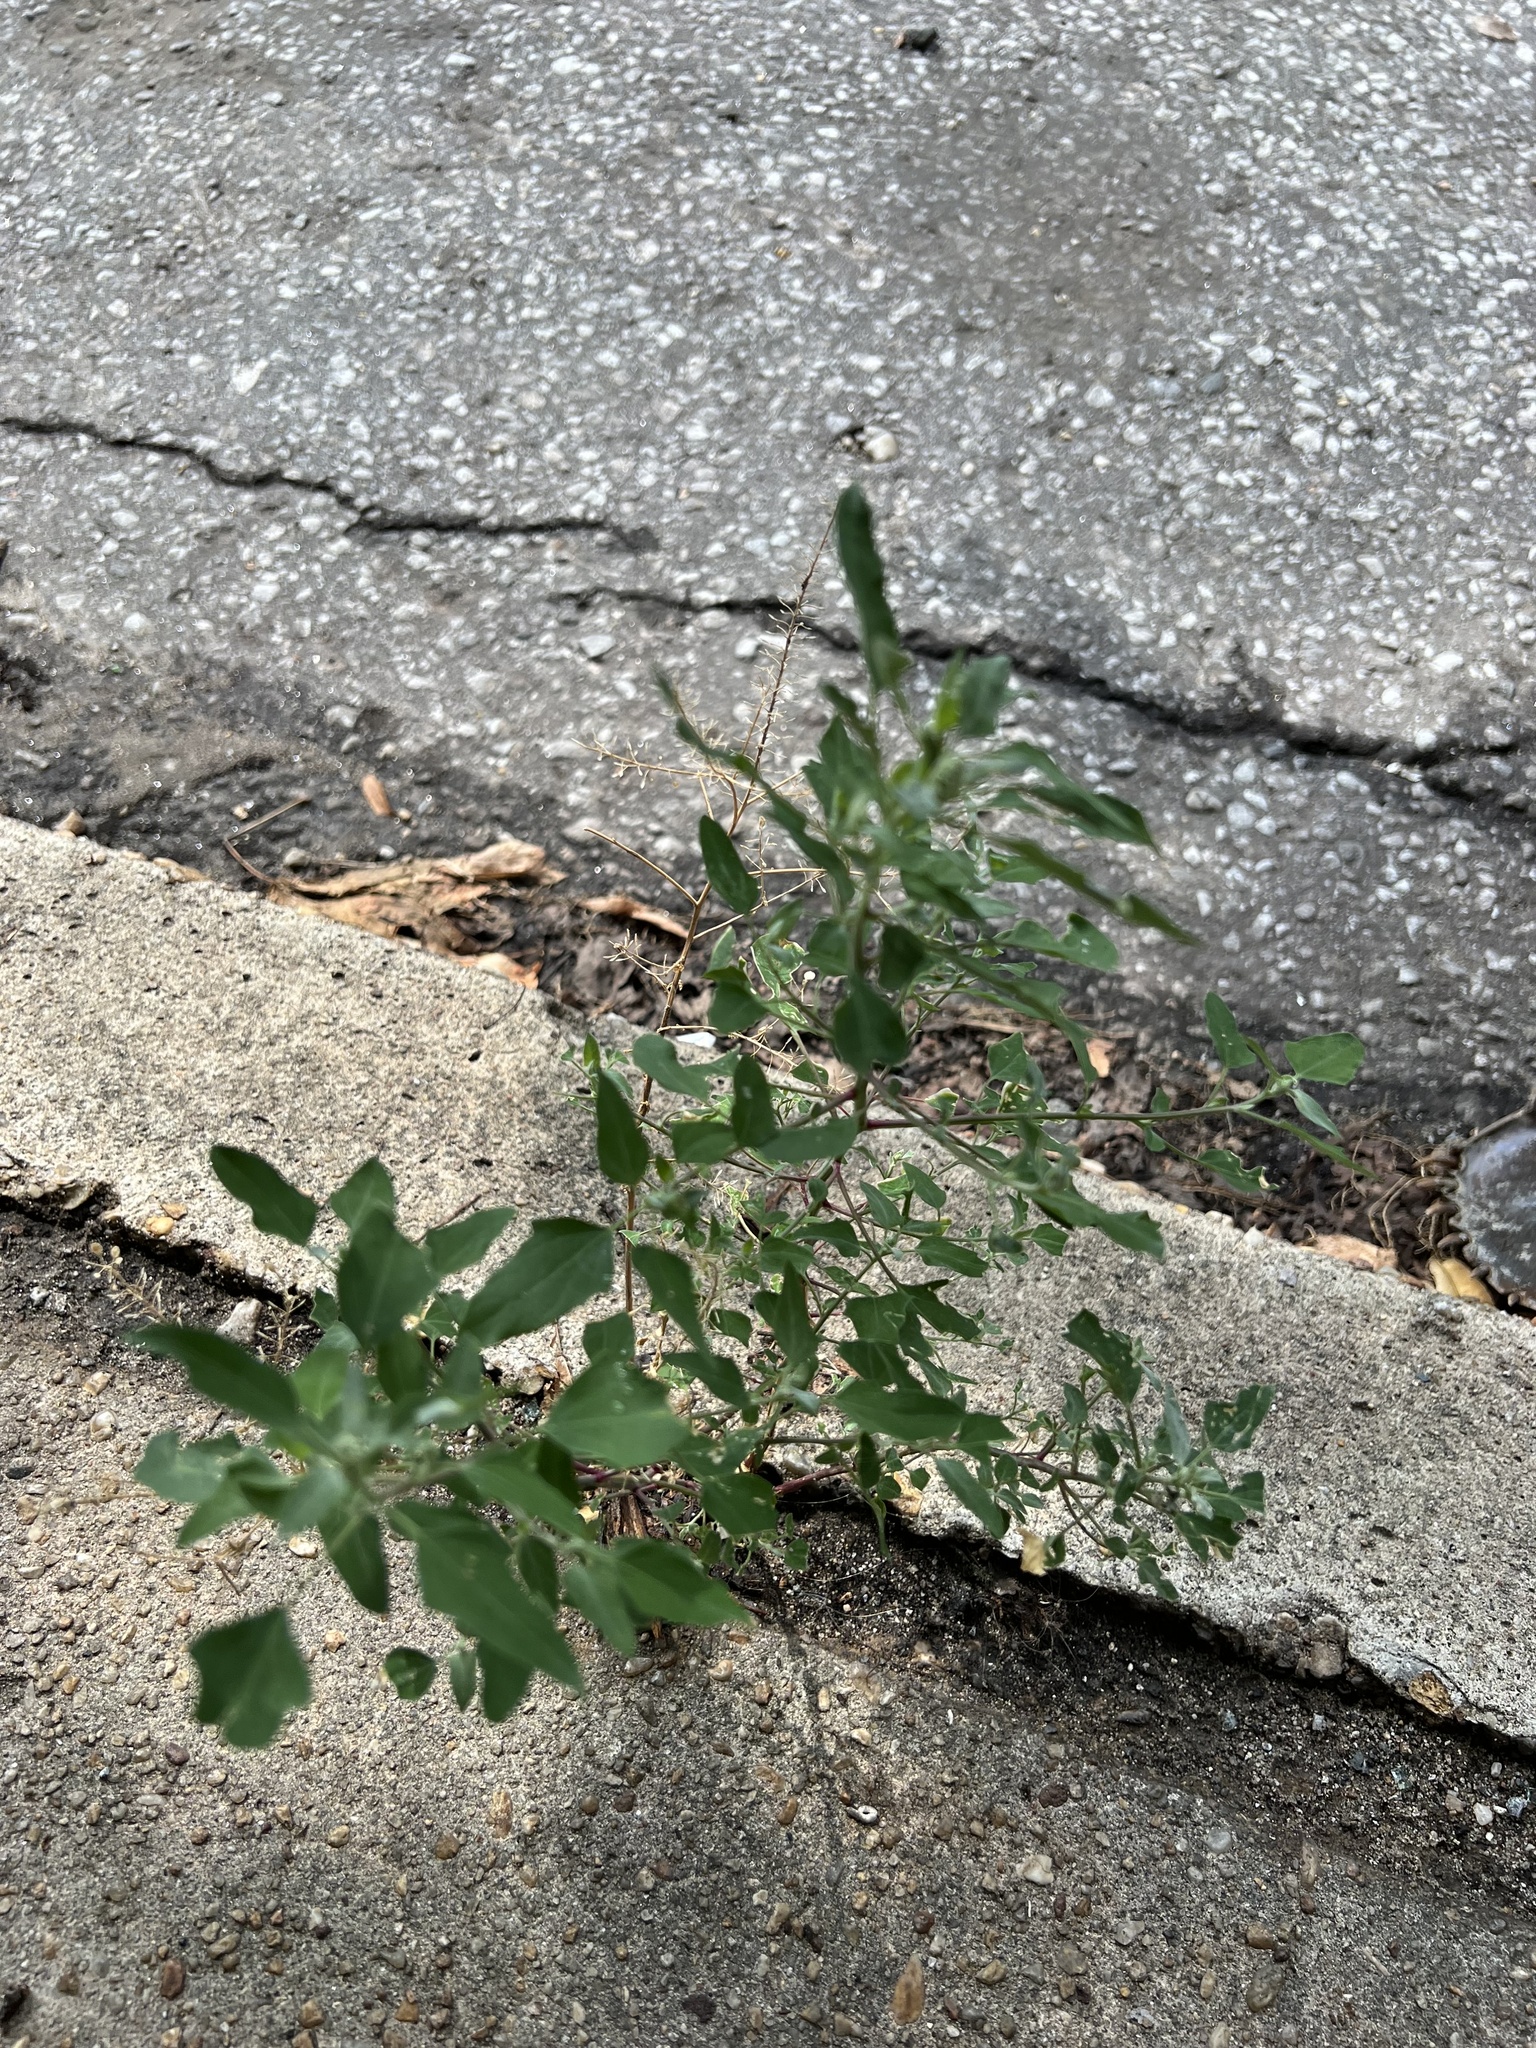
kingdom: Plantae
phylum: Tracheophyta
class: Magnoliopsida
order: Caryophyllales
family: Amaranthaceae
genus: Chenopodium
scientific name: Chenopodium album
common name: Fat-hen
